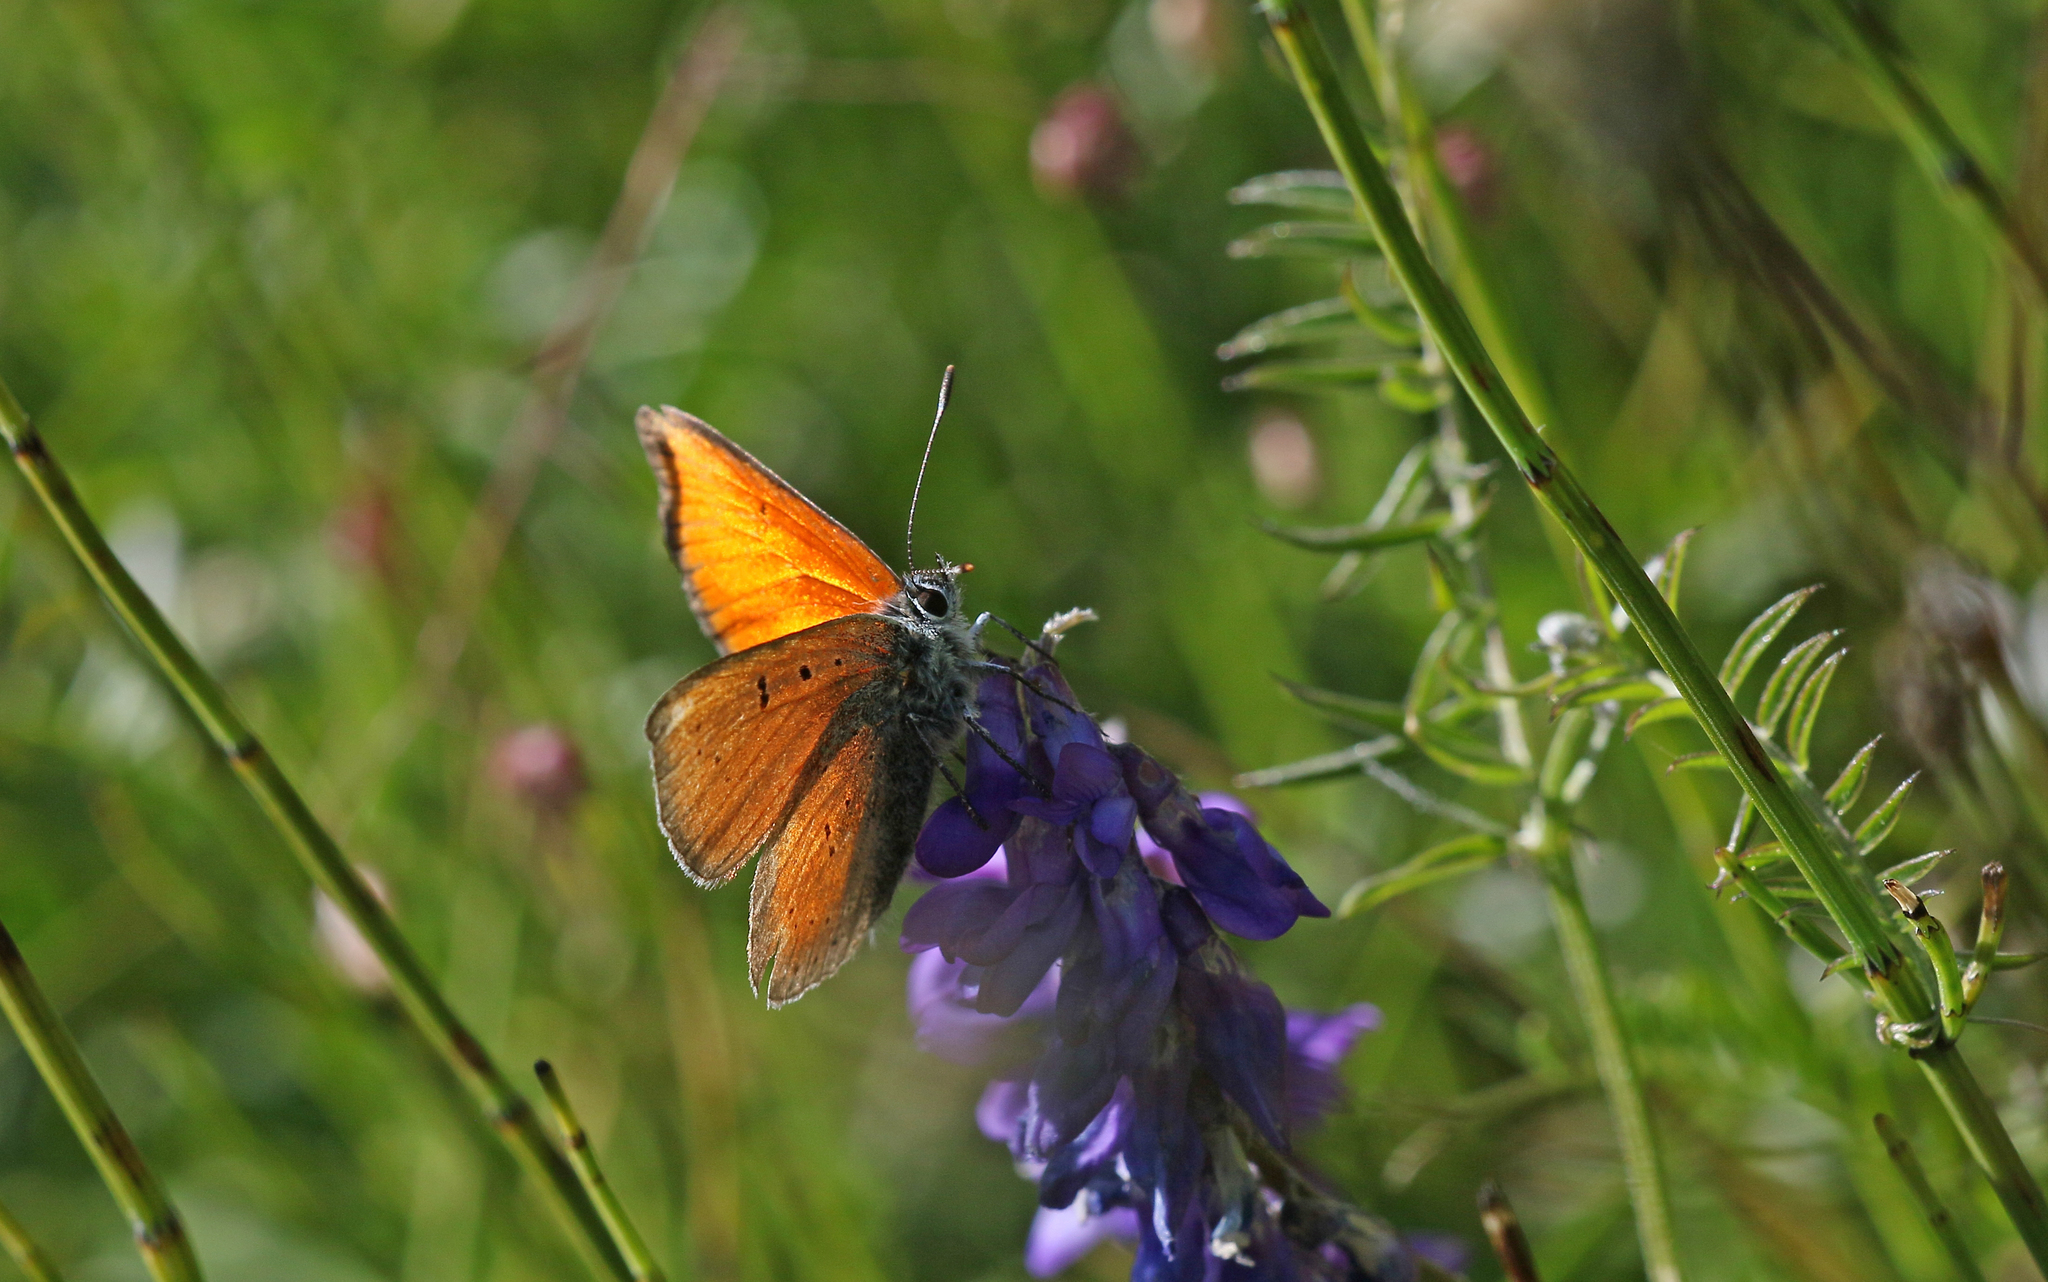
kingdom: Animalia
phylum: Arthropoda
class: Insecta
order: Lepidoptera
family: Lycaenidae
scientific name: Lycaenidae
